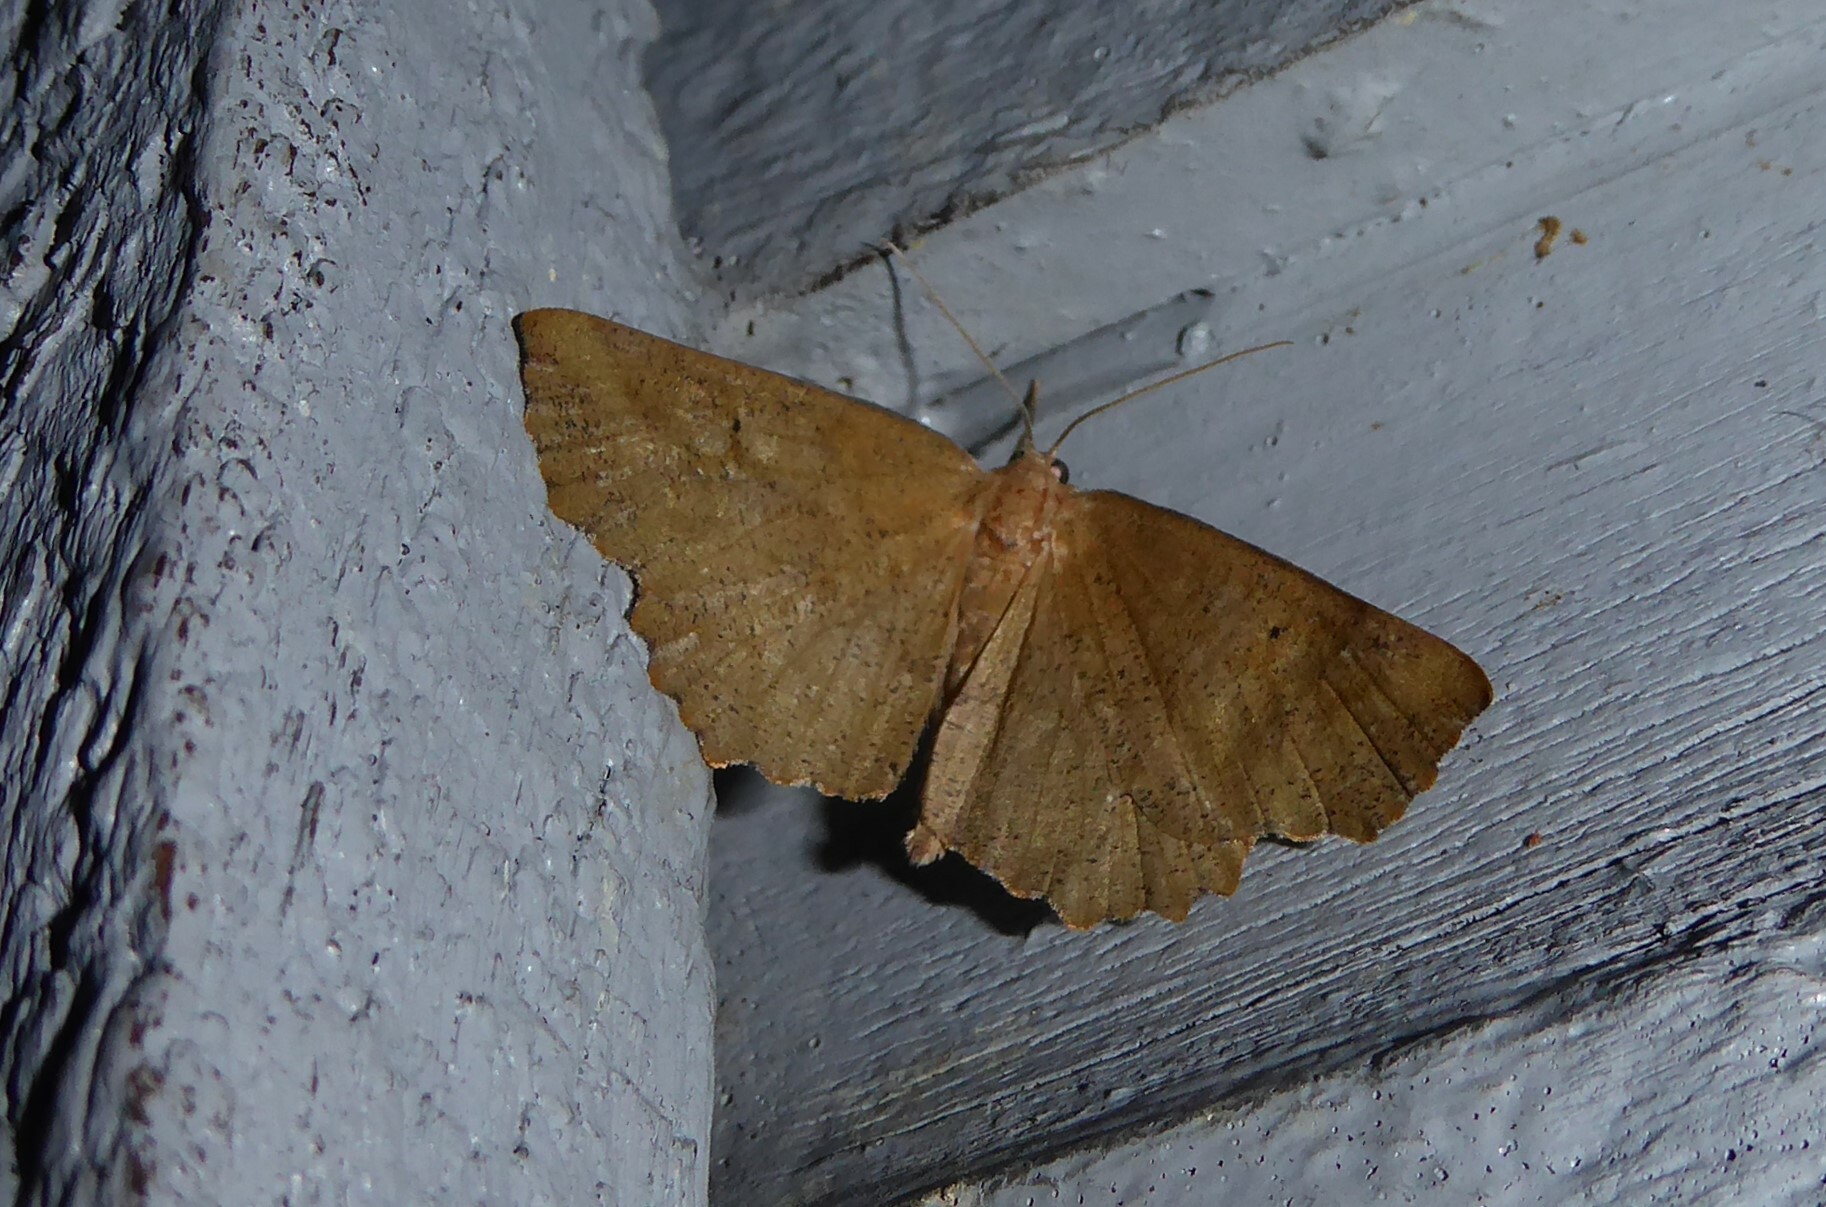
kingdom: Animalia
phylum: Arthropoda
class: Insecta
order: Lepidoptera
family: Geometridae
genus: Xyridacma
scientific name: Xyridacma ustaria
